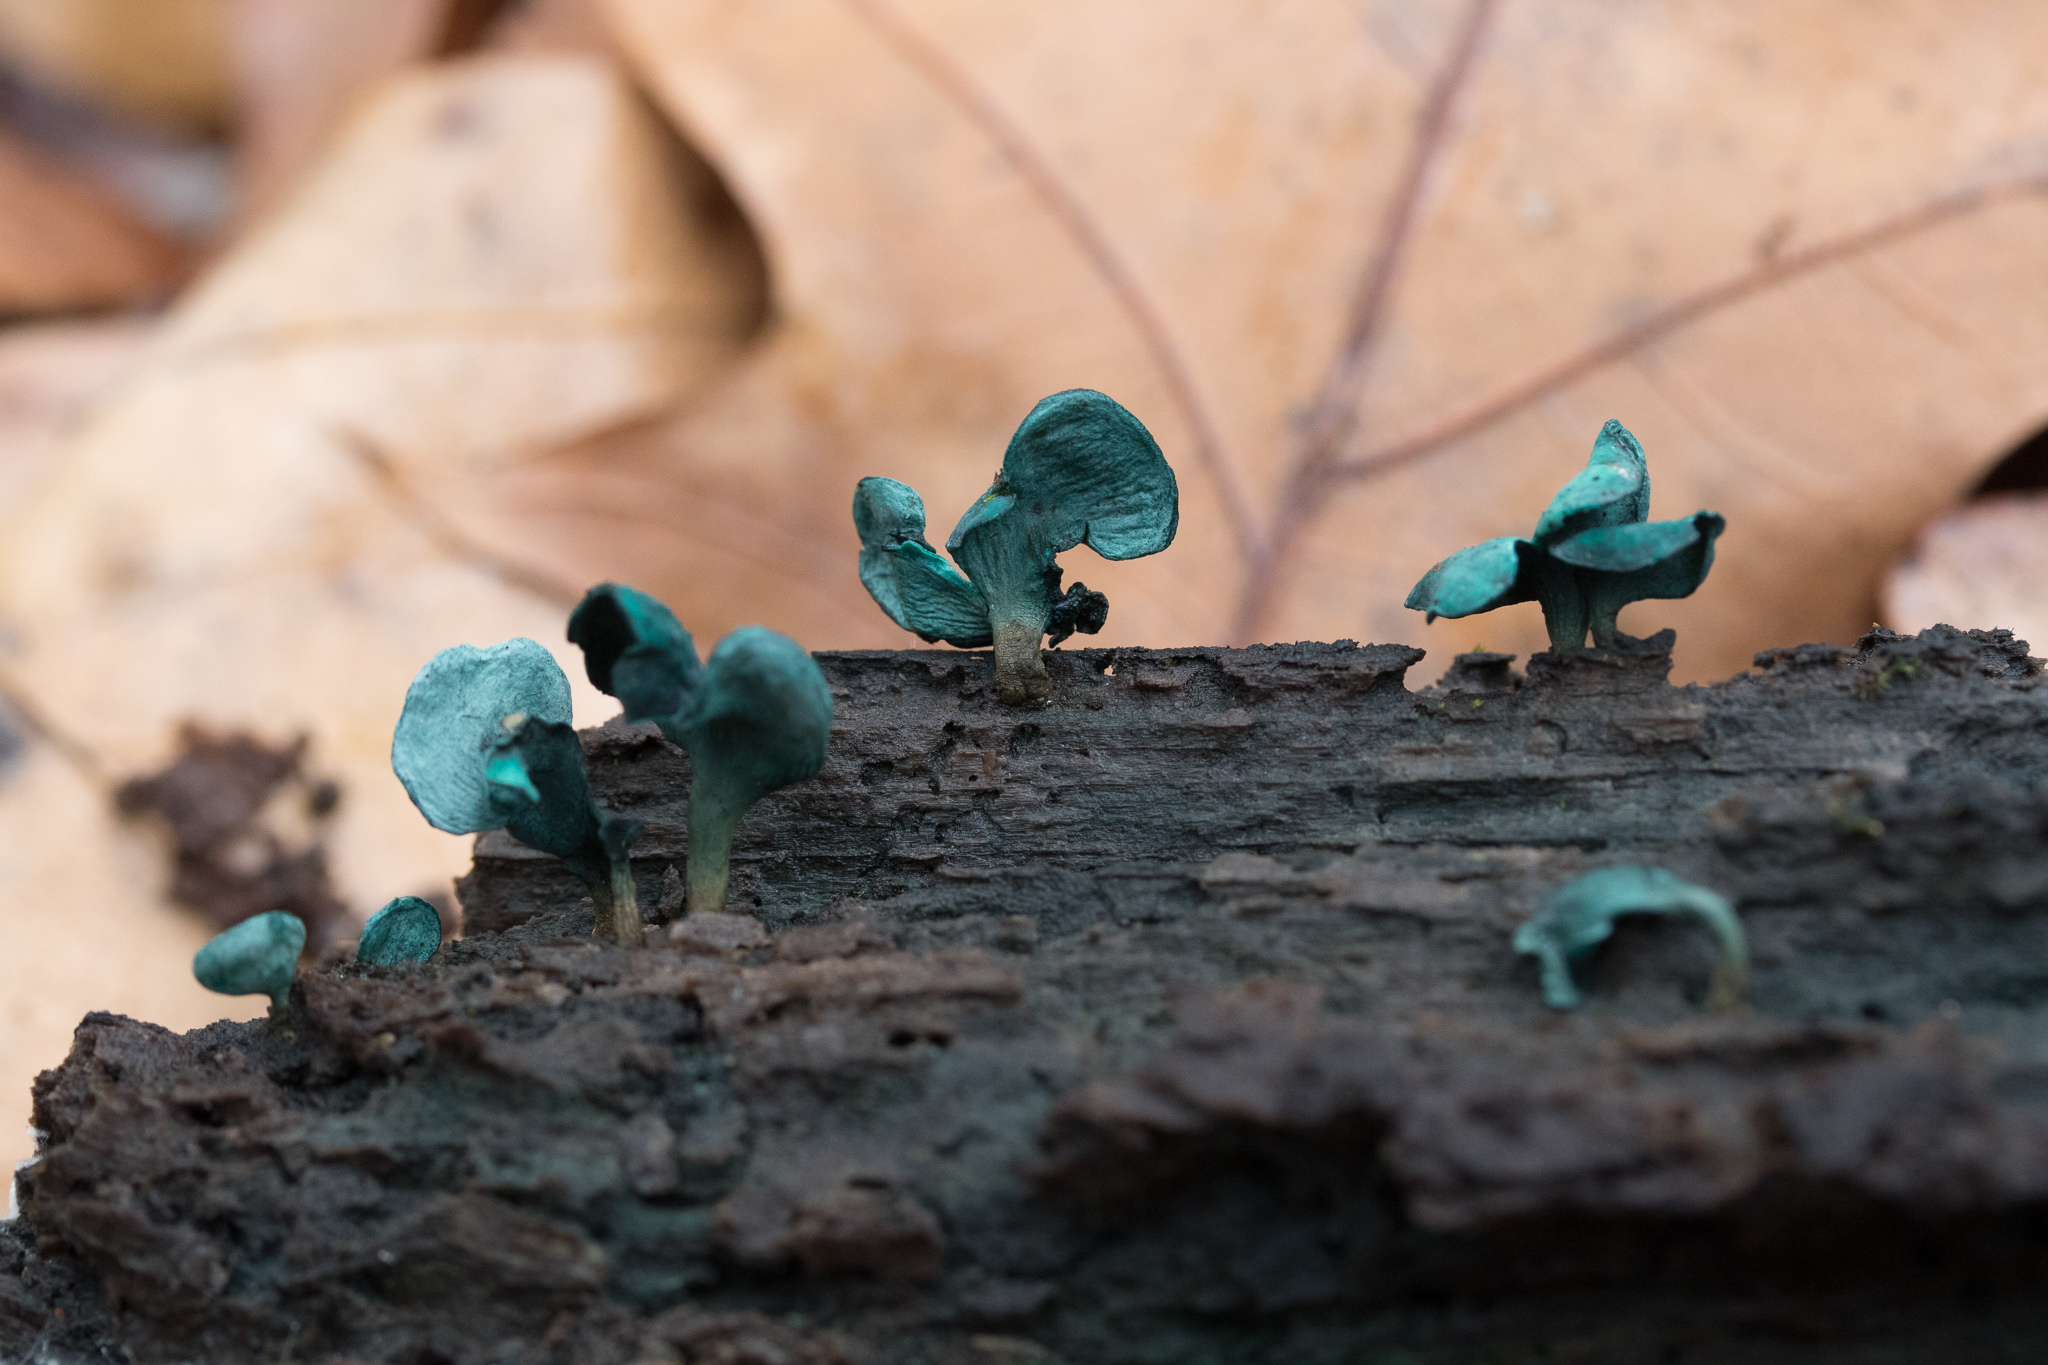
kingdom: Fungi
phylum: Ascomycota
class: Leotiomycetes
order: Helotiales
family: Chlorociboriaceae
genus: Chlorociboria
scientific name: Chlorociboria aeruginascens
